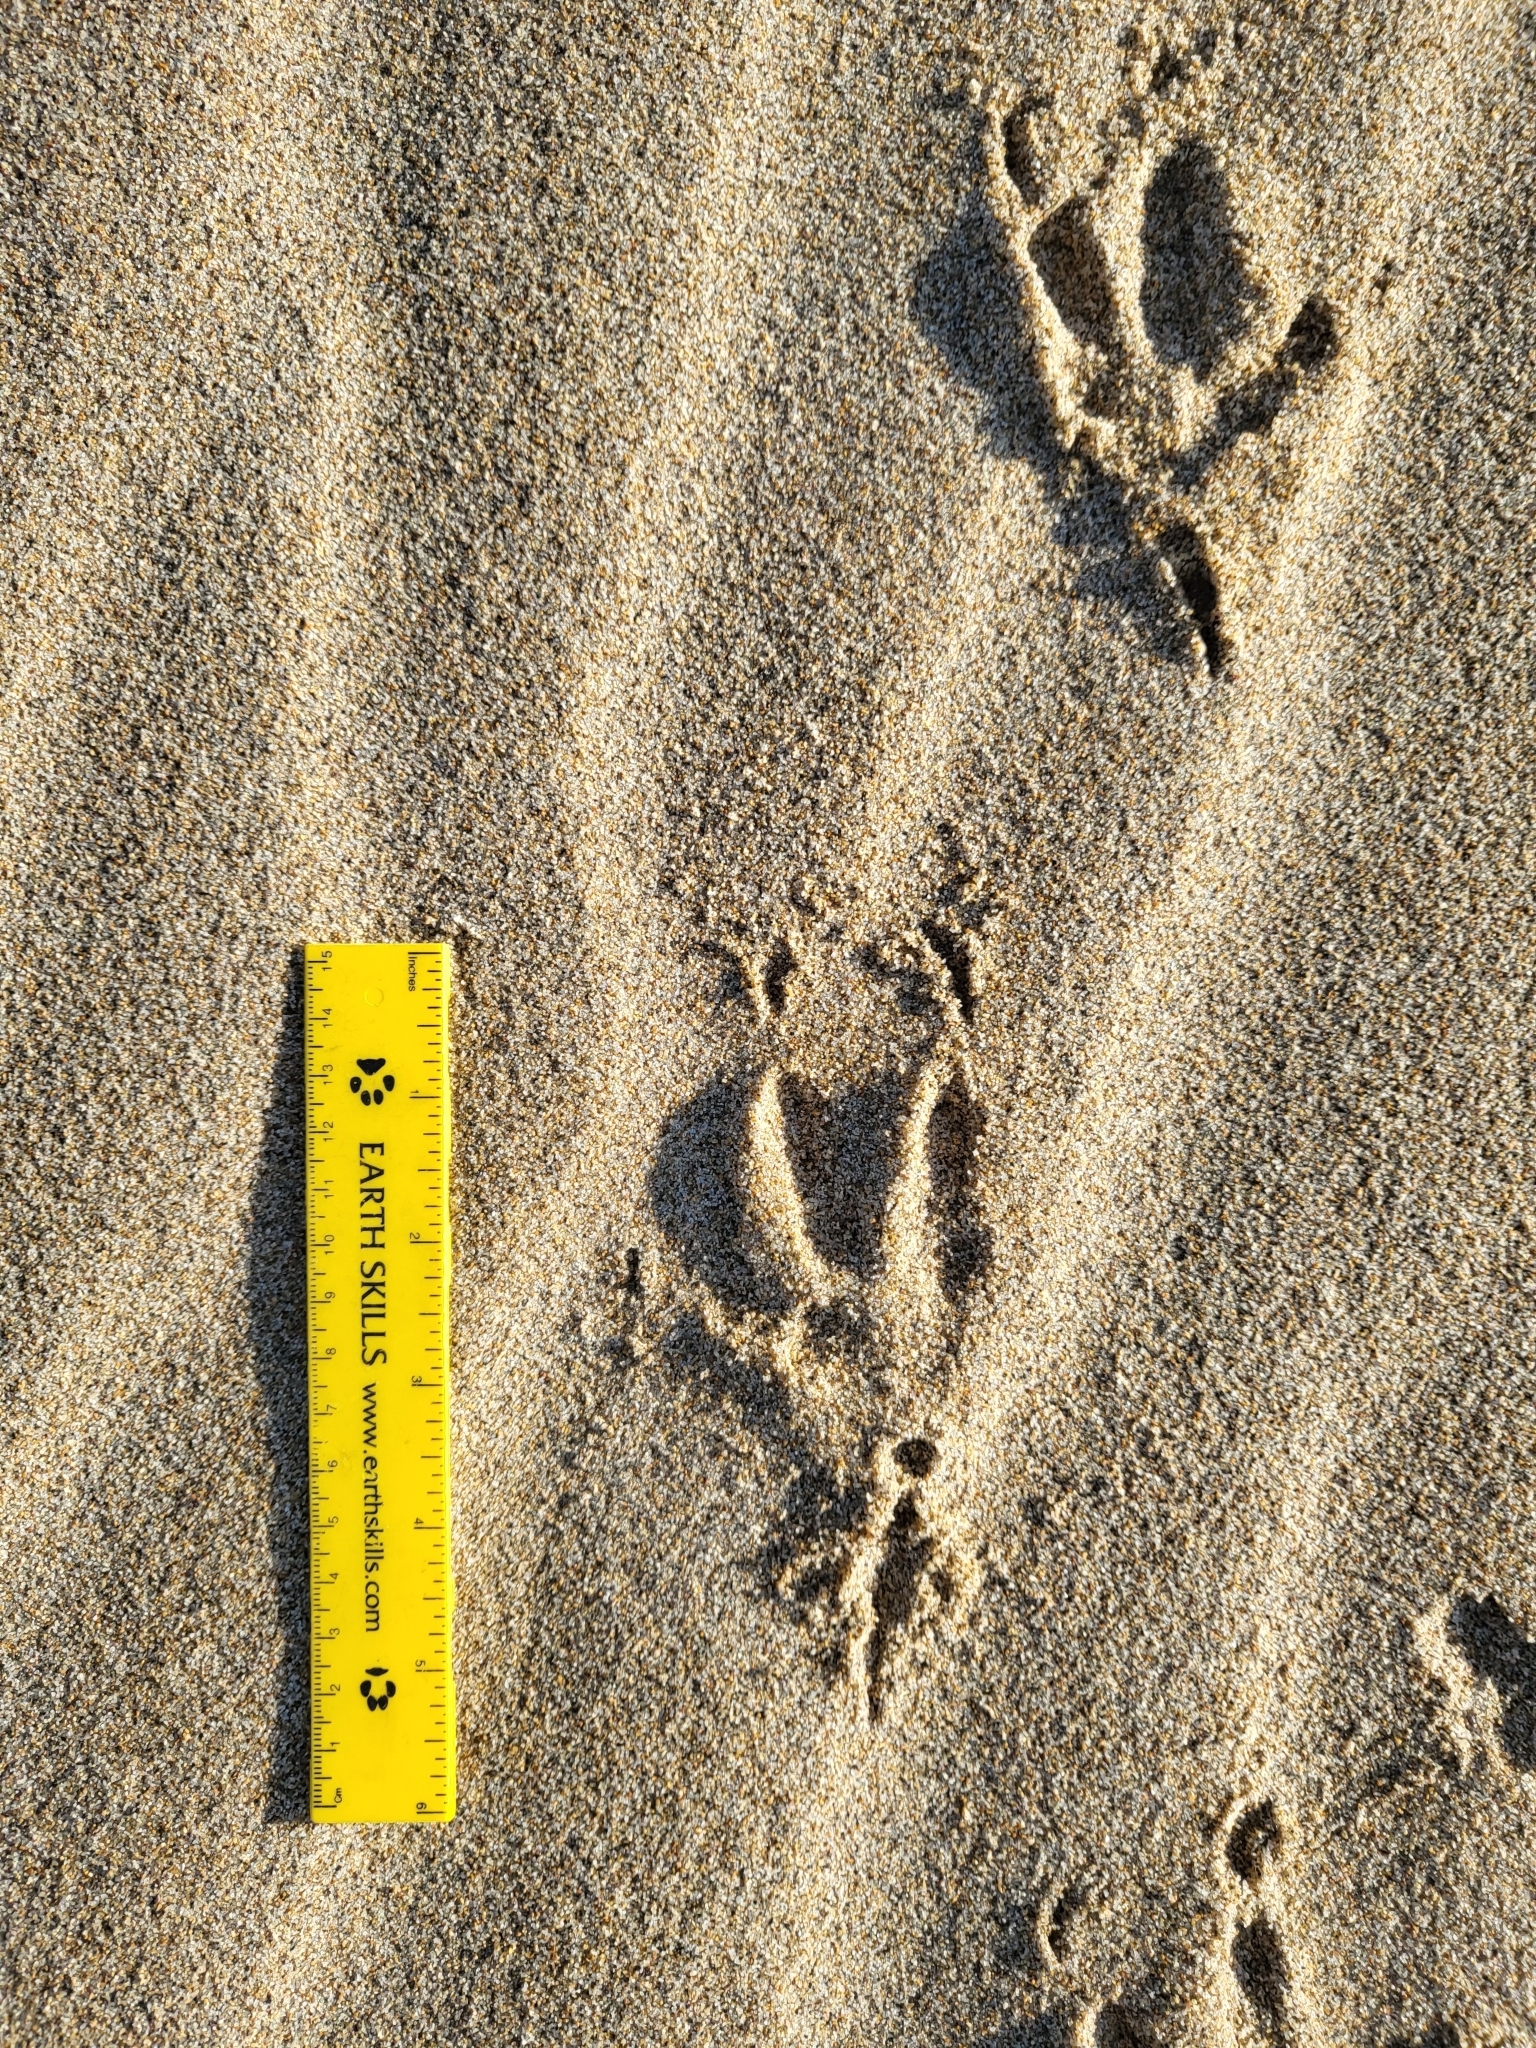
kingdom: Animalia
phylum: Chordata
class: Aves
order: Strigiformes
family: Strigidae
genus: Bubo
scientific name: Bubo virginianus
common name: Great horned owl
